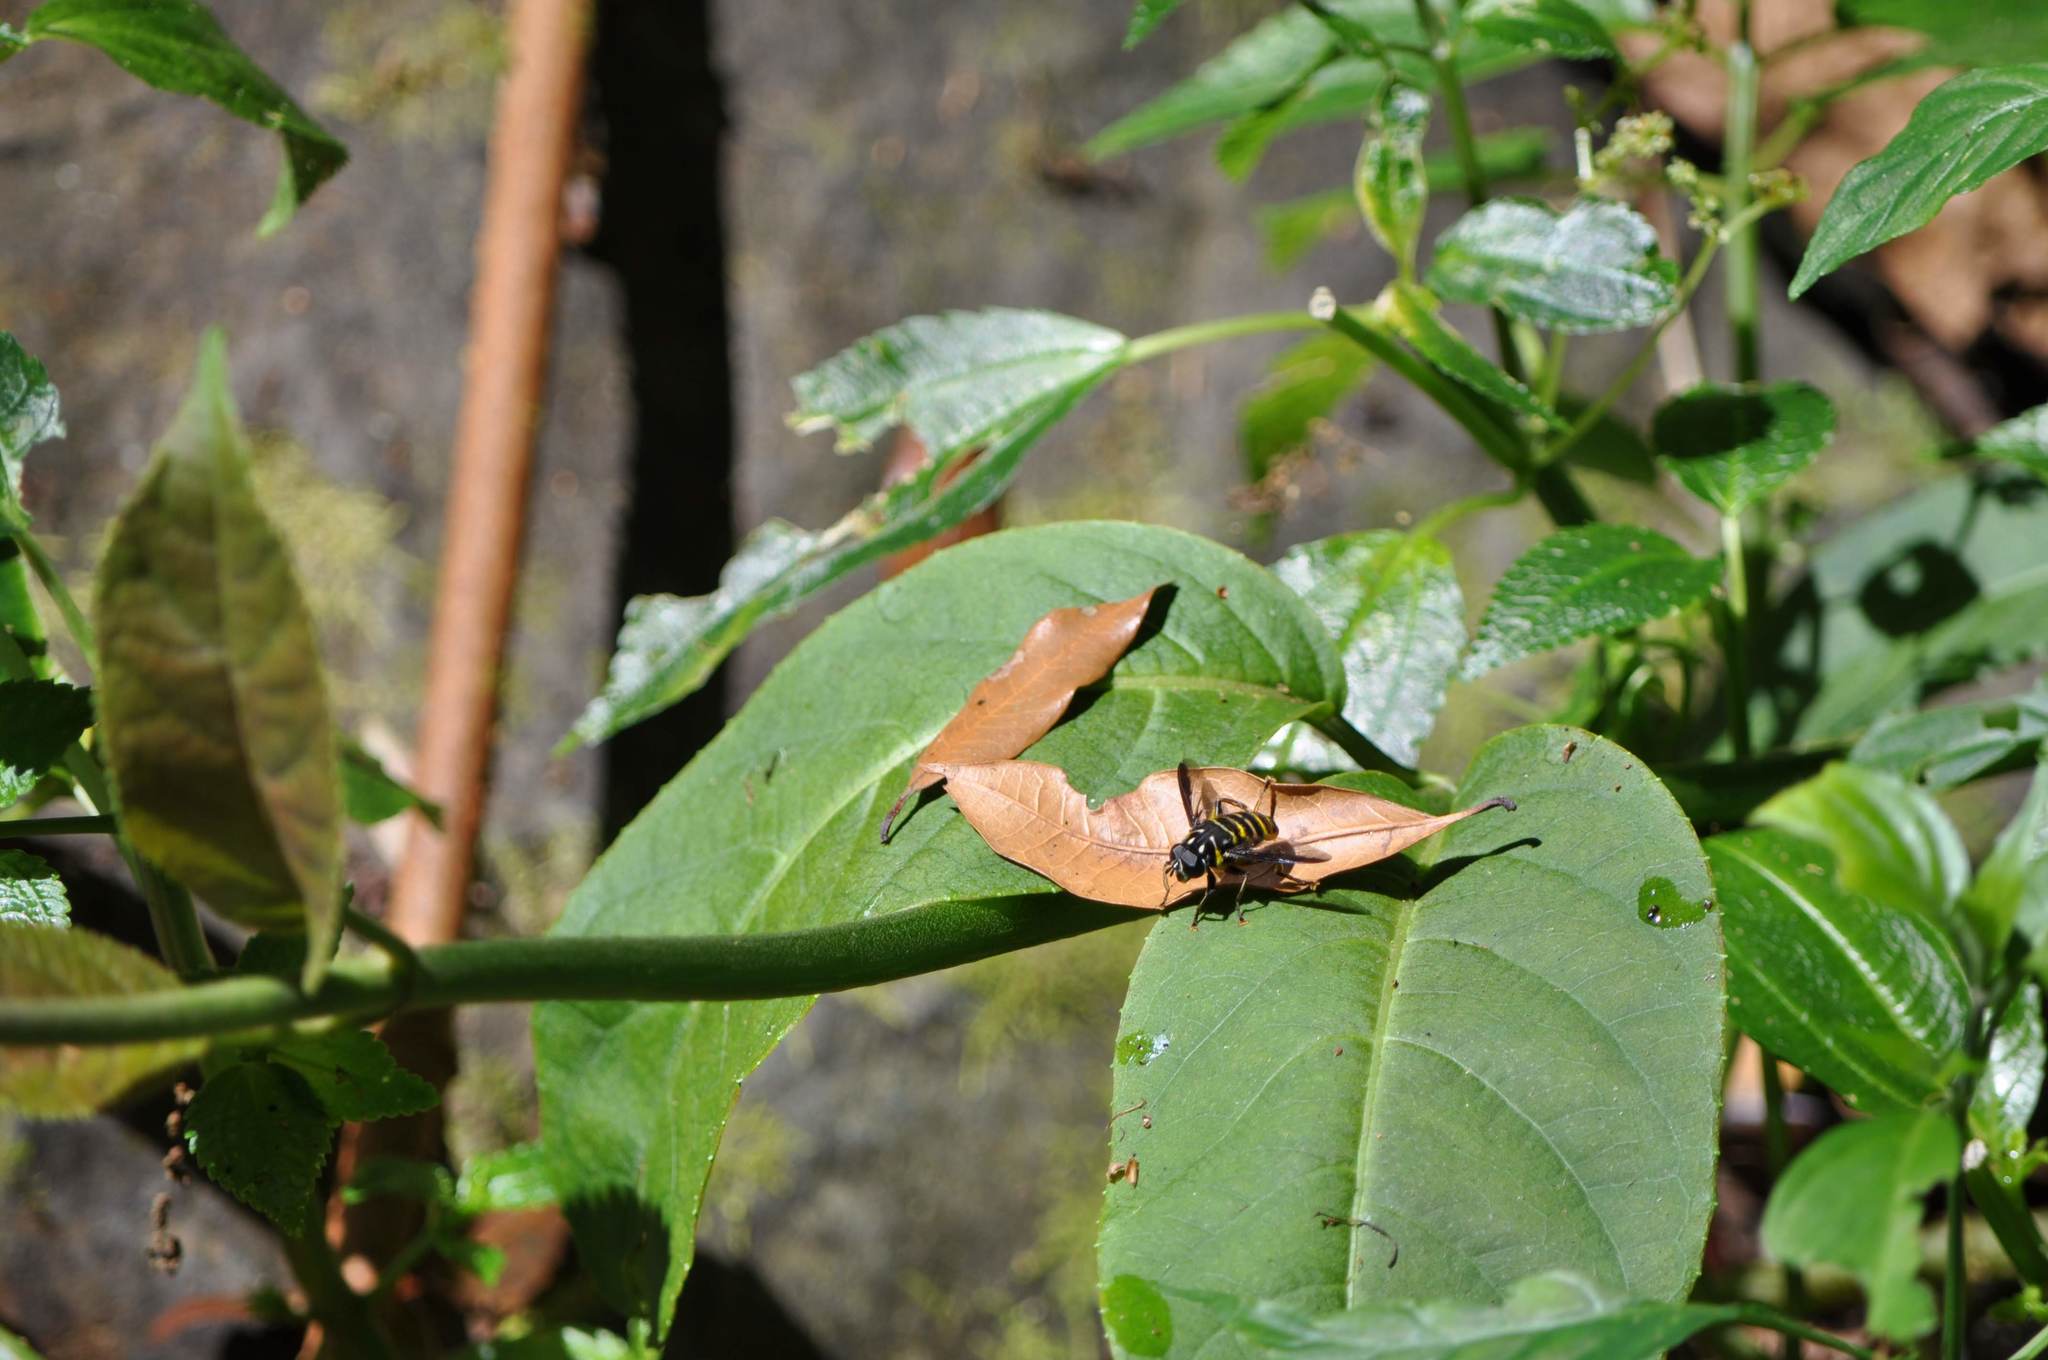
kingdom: Animalia
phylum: Arthropoda
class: Insecta
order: Diptera
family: Syrphidae
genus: Meromacrus
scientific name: Meromacrus loewi
